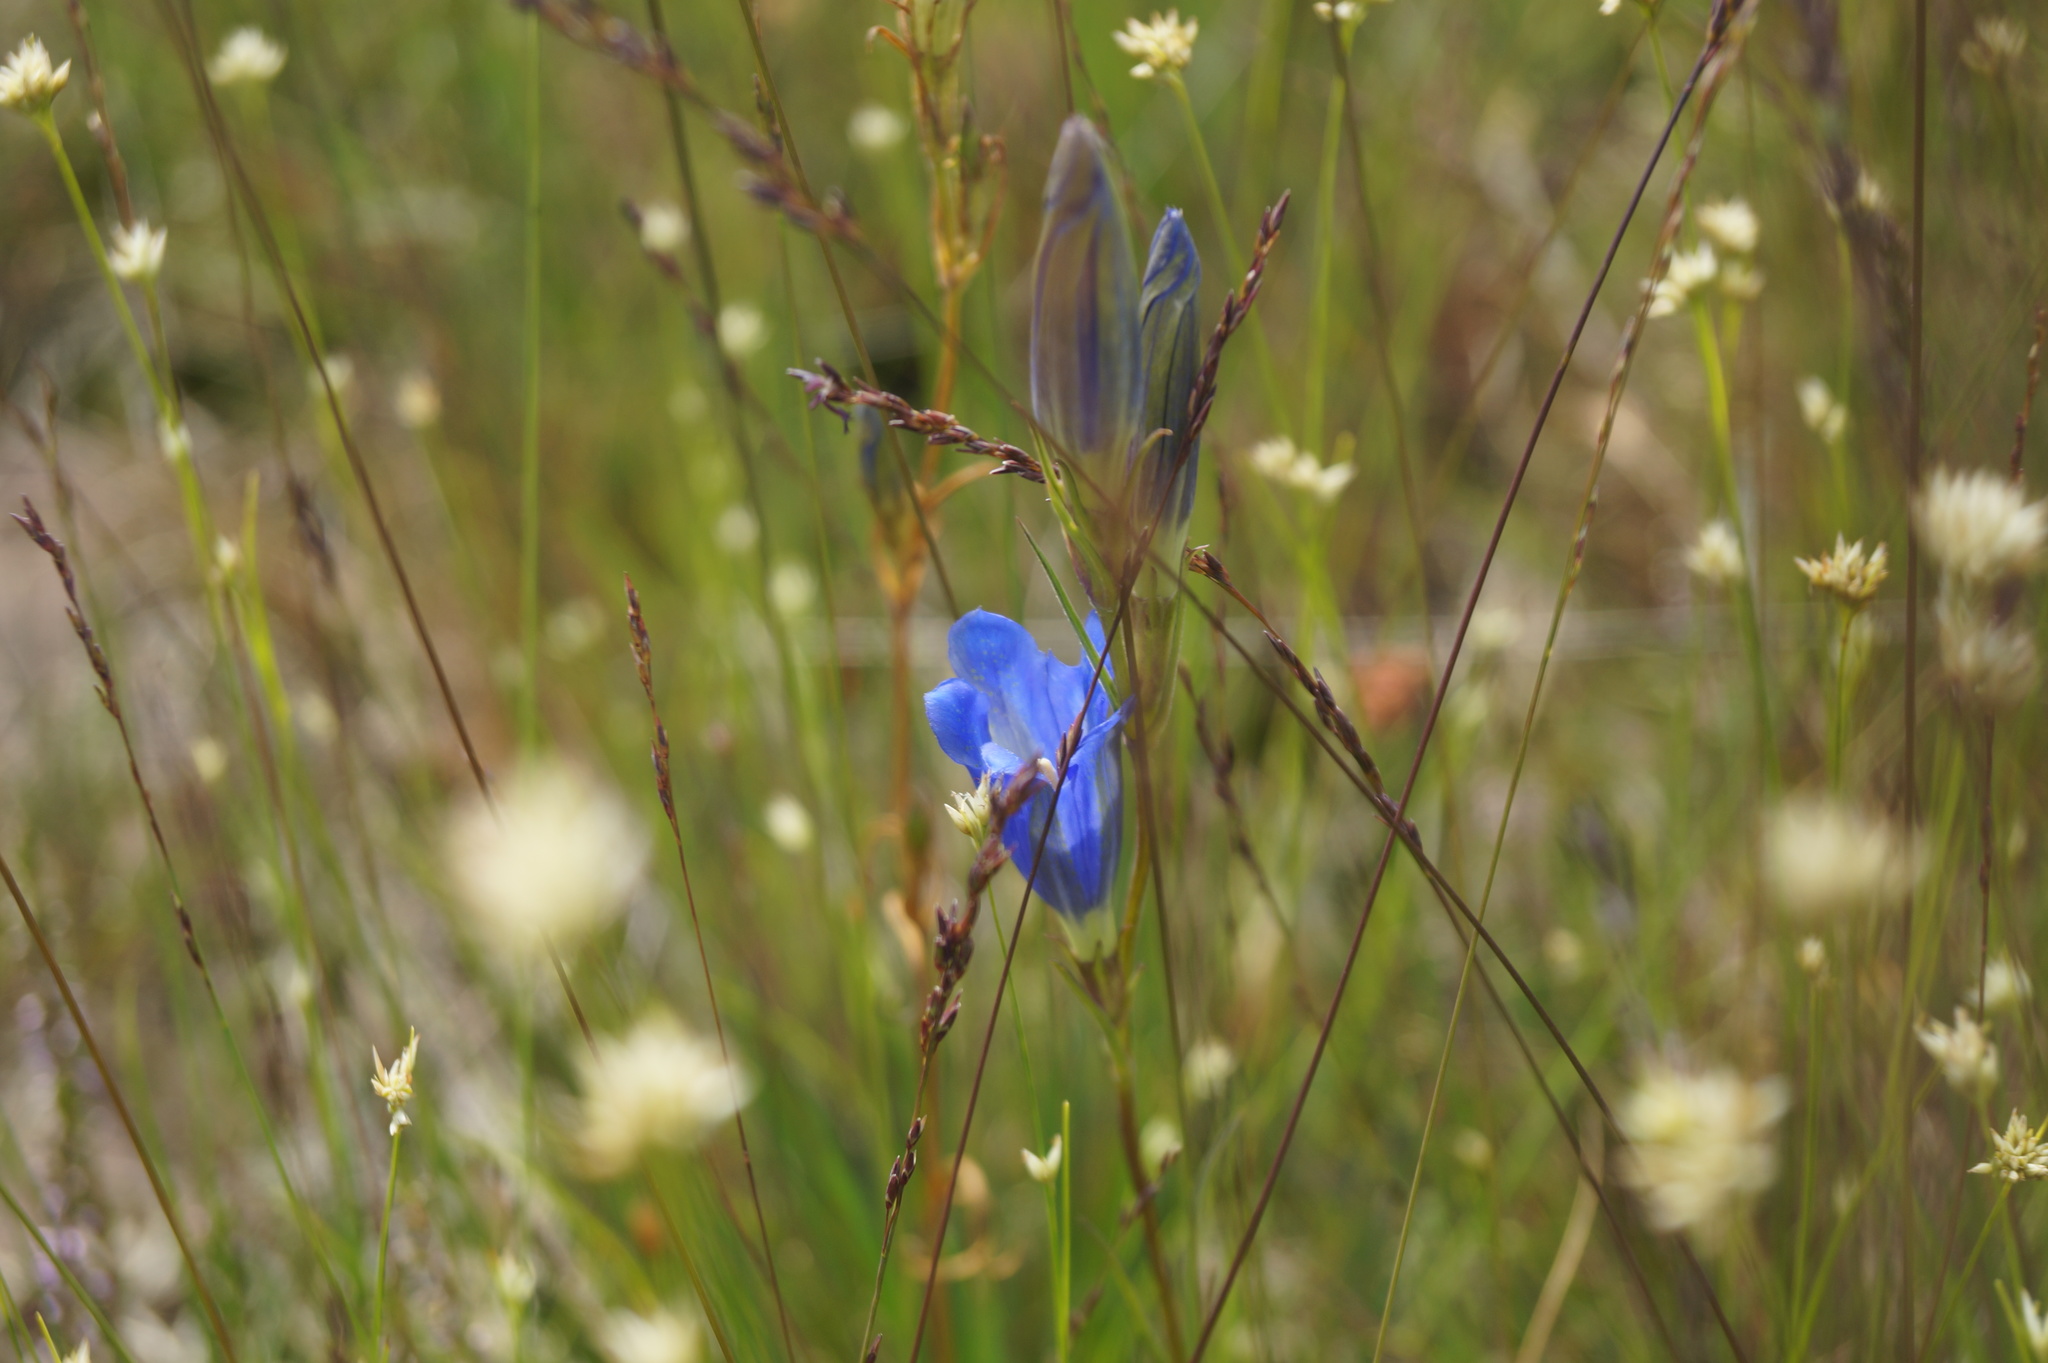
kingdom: Plantae
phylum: Tracheophyta
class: Magnoliopsida
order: Gentianales
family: Gentianaceae
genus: Gentiana
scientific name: Gentiana pneumonanthe
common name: Marsh gentian
